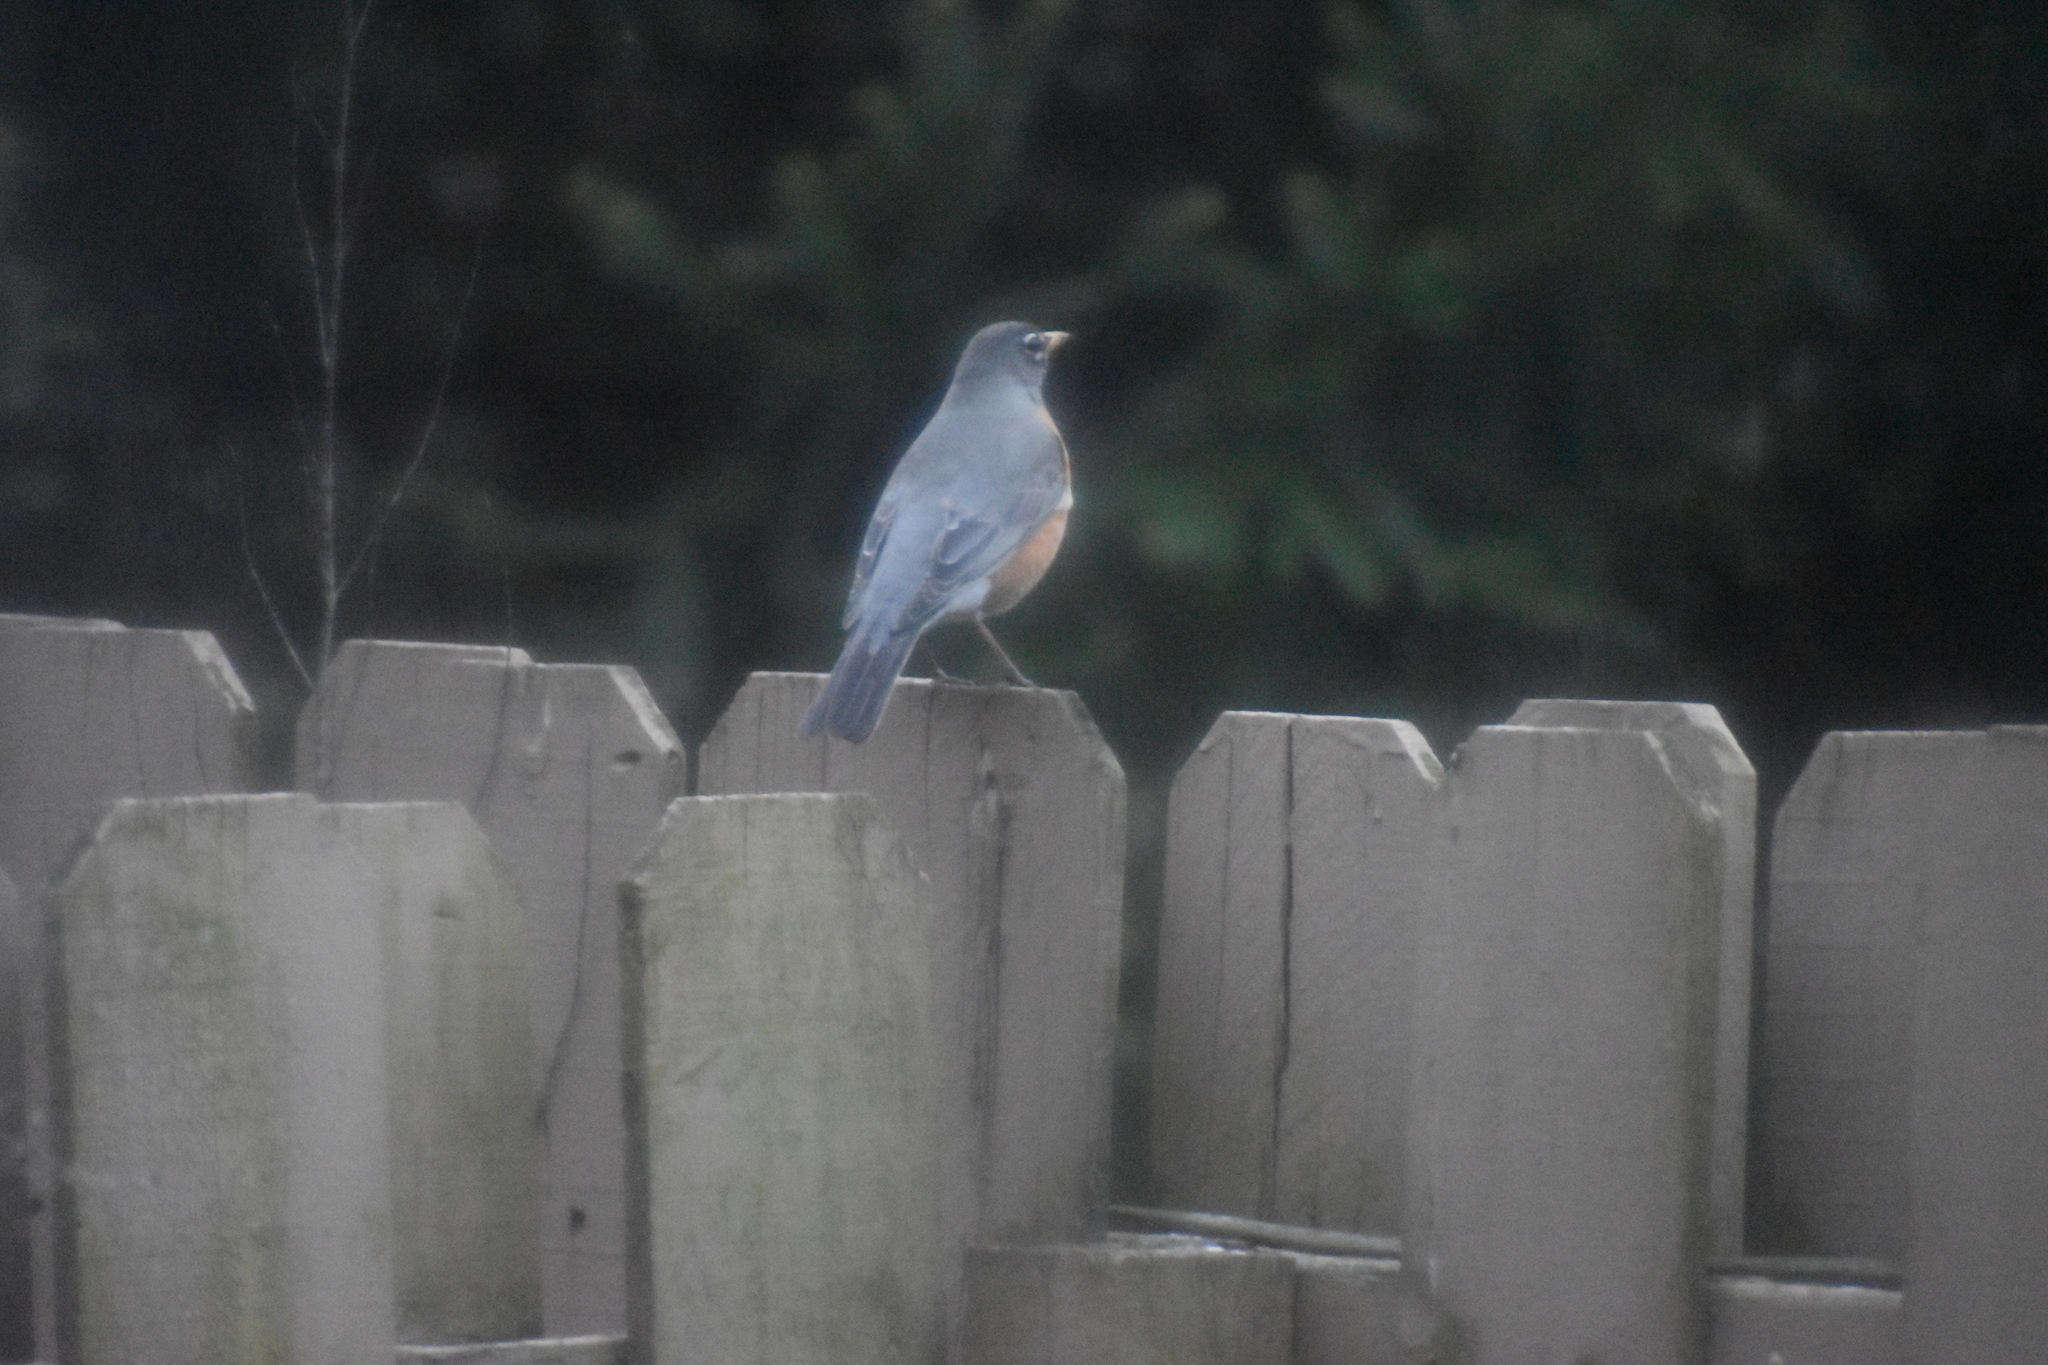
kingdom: Animalia
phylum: Chordata
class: Aves
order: Passeriformes
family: Turdidae
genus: Turdus
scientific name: Turdus migratorius
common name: American robin
